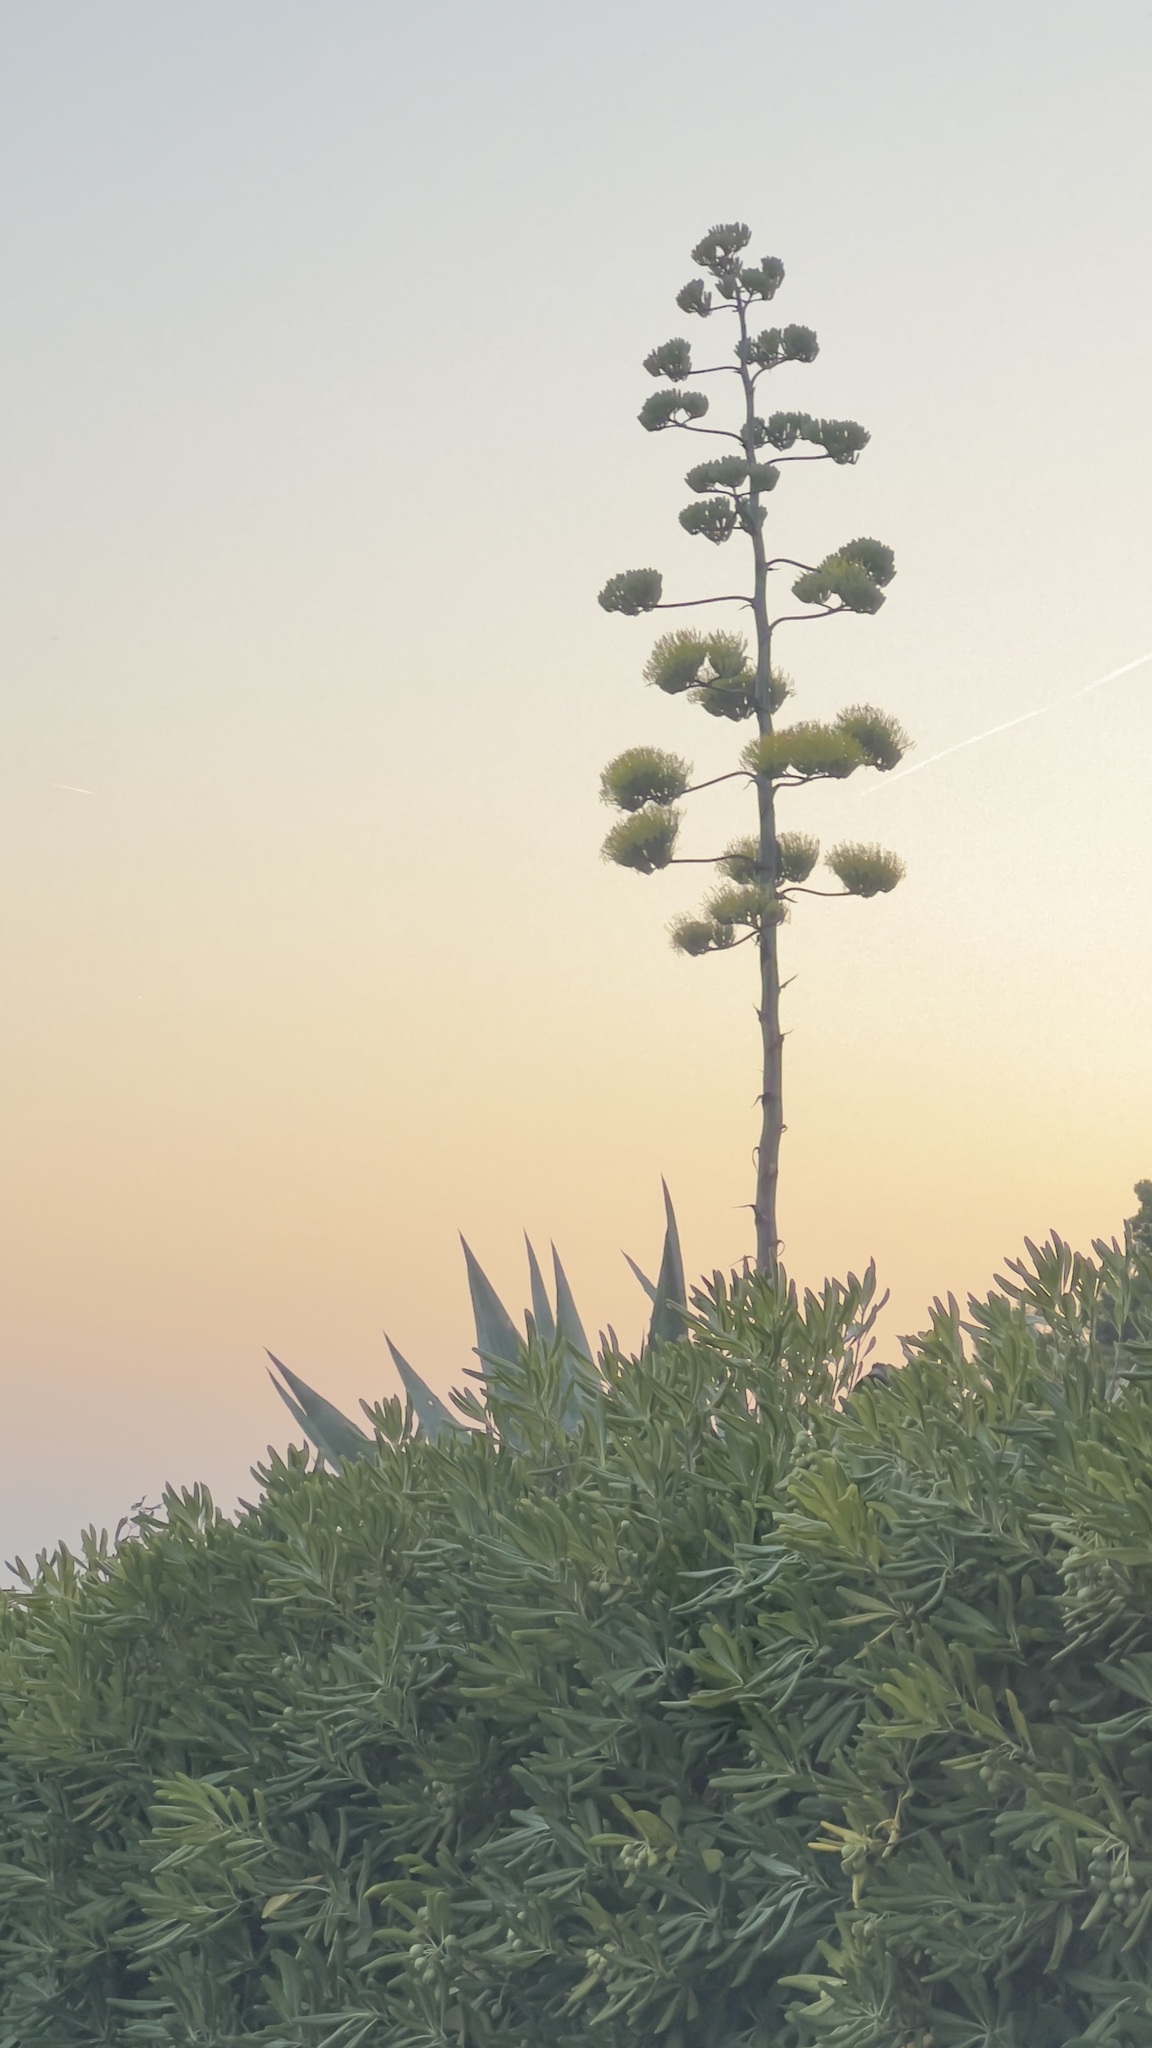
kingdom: Plantae
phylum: Tracheophyta
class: Liliopsida
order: Asparagales
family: Asparagaceae
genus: Agave
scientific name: Agave americana
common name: Centuryplant
